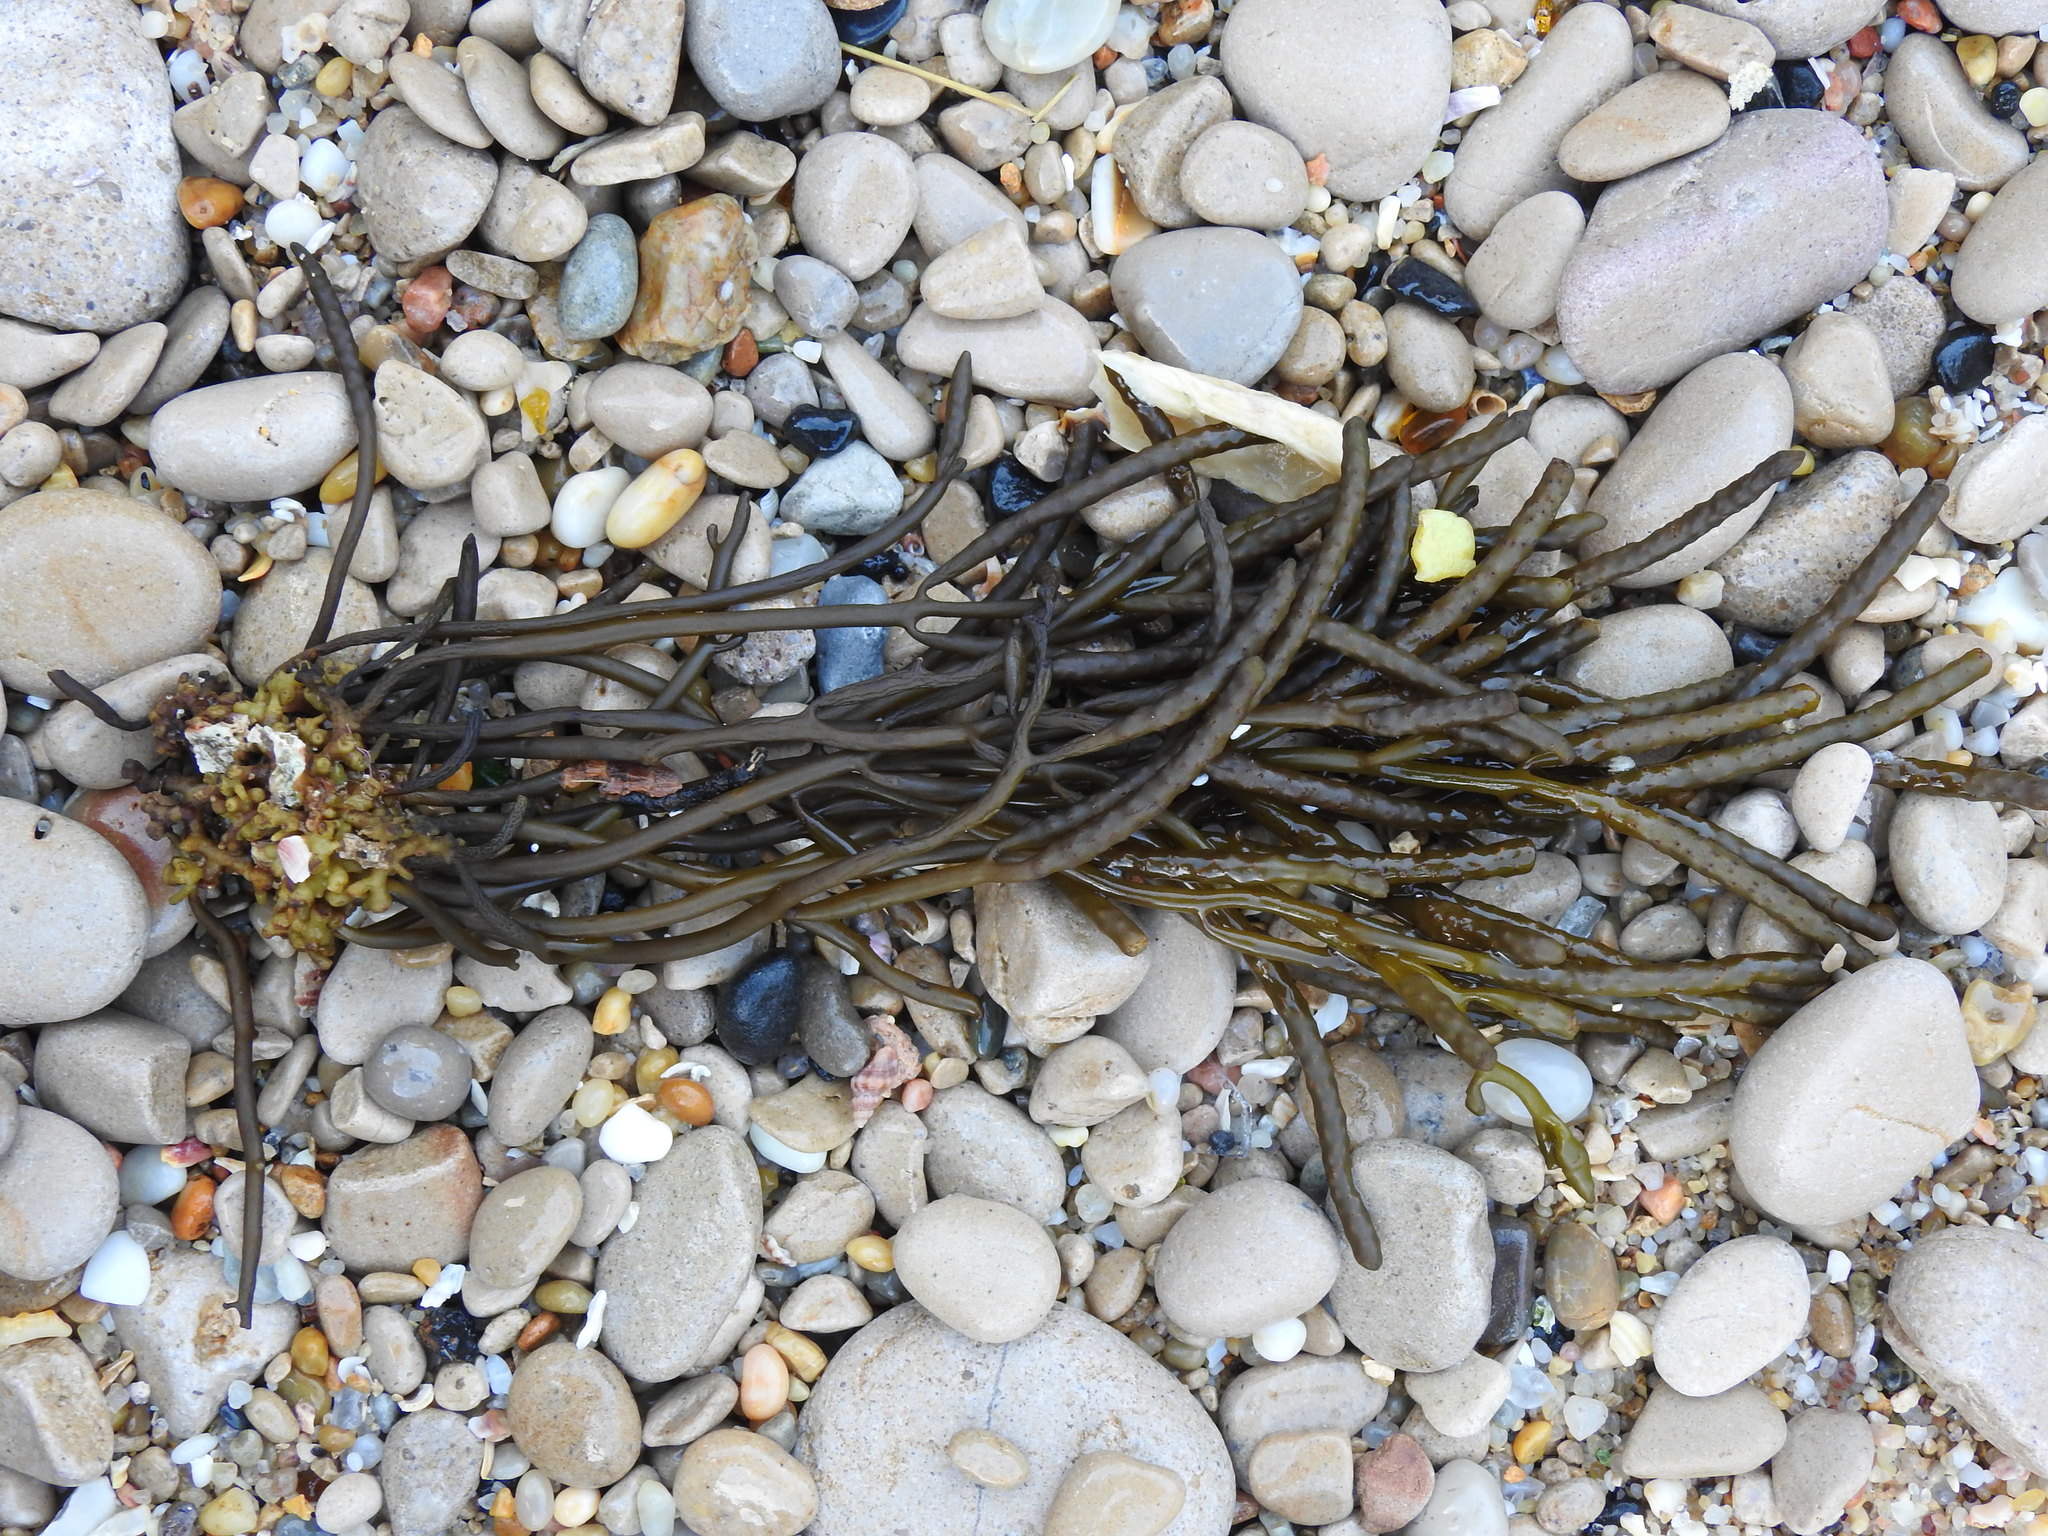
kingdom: Chromista
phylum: Ochrophyta
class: Phaeophyceae
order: Fucales
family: Sargassaceae
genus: Bifurcaria
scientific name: Bifurcaria bifurcata
